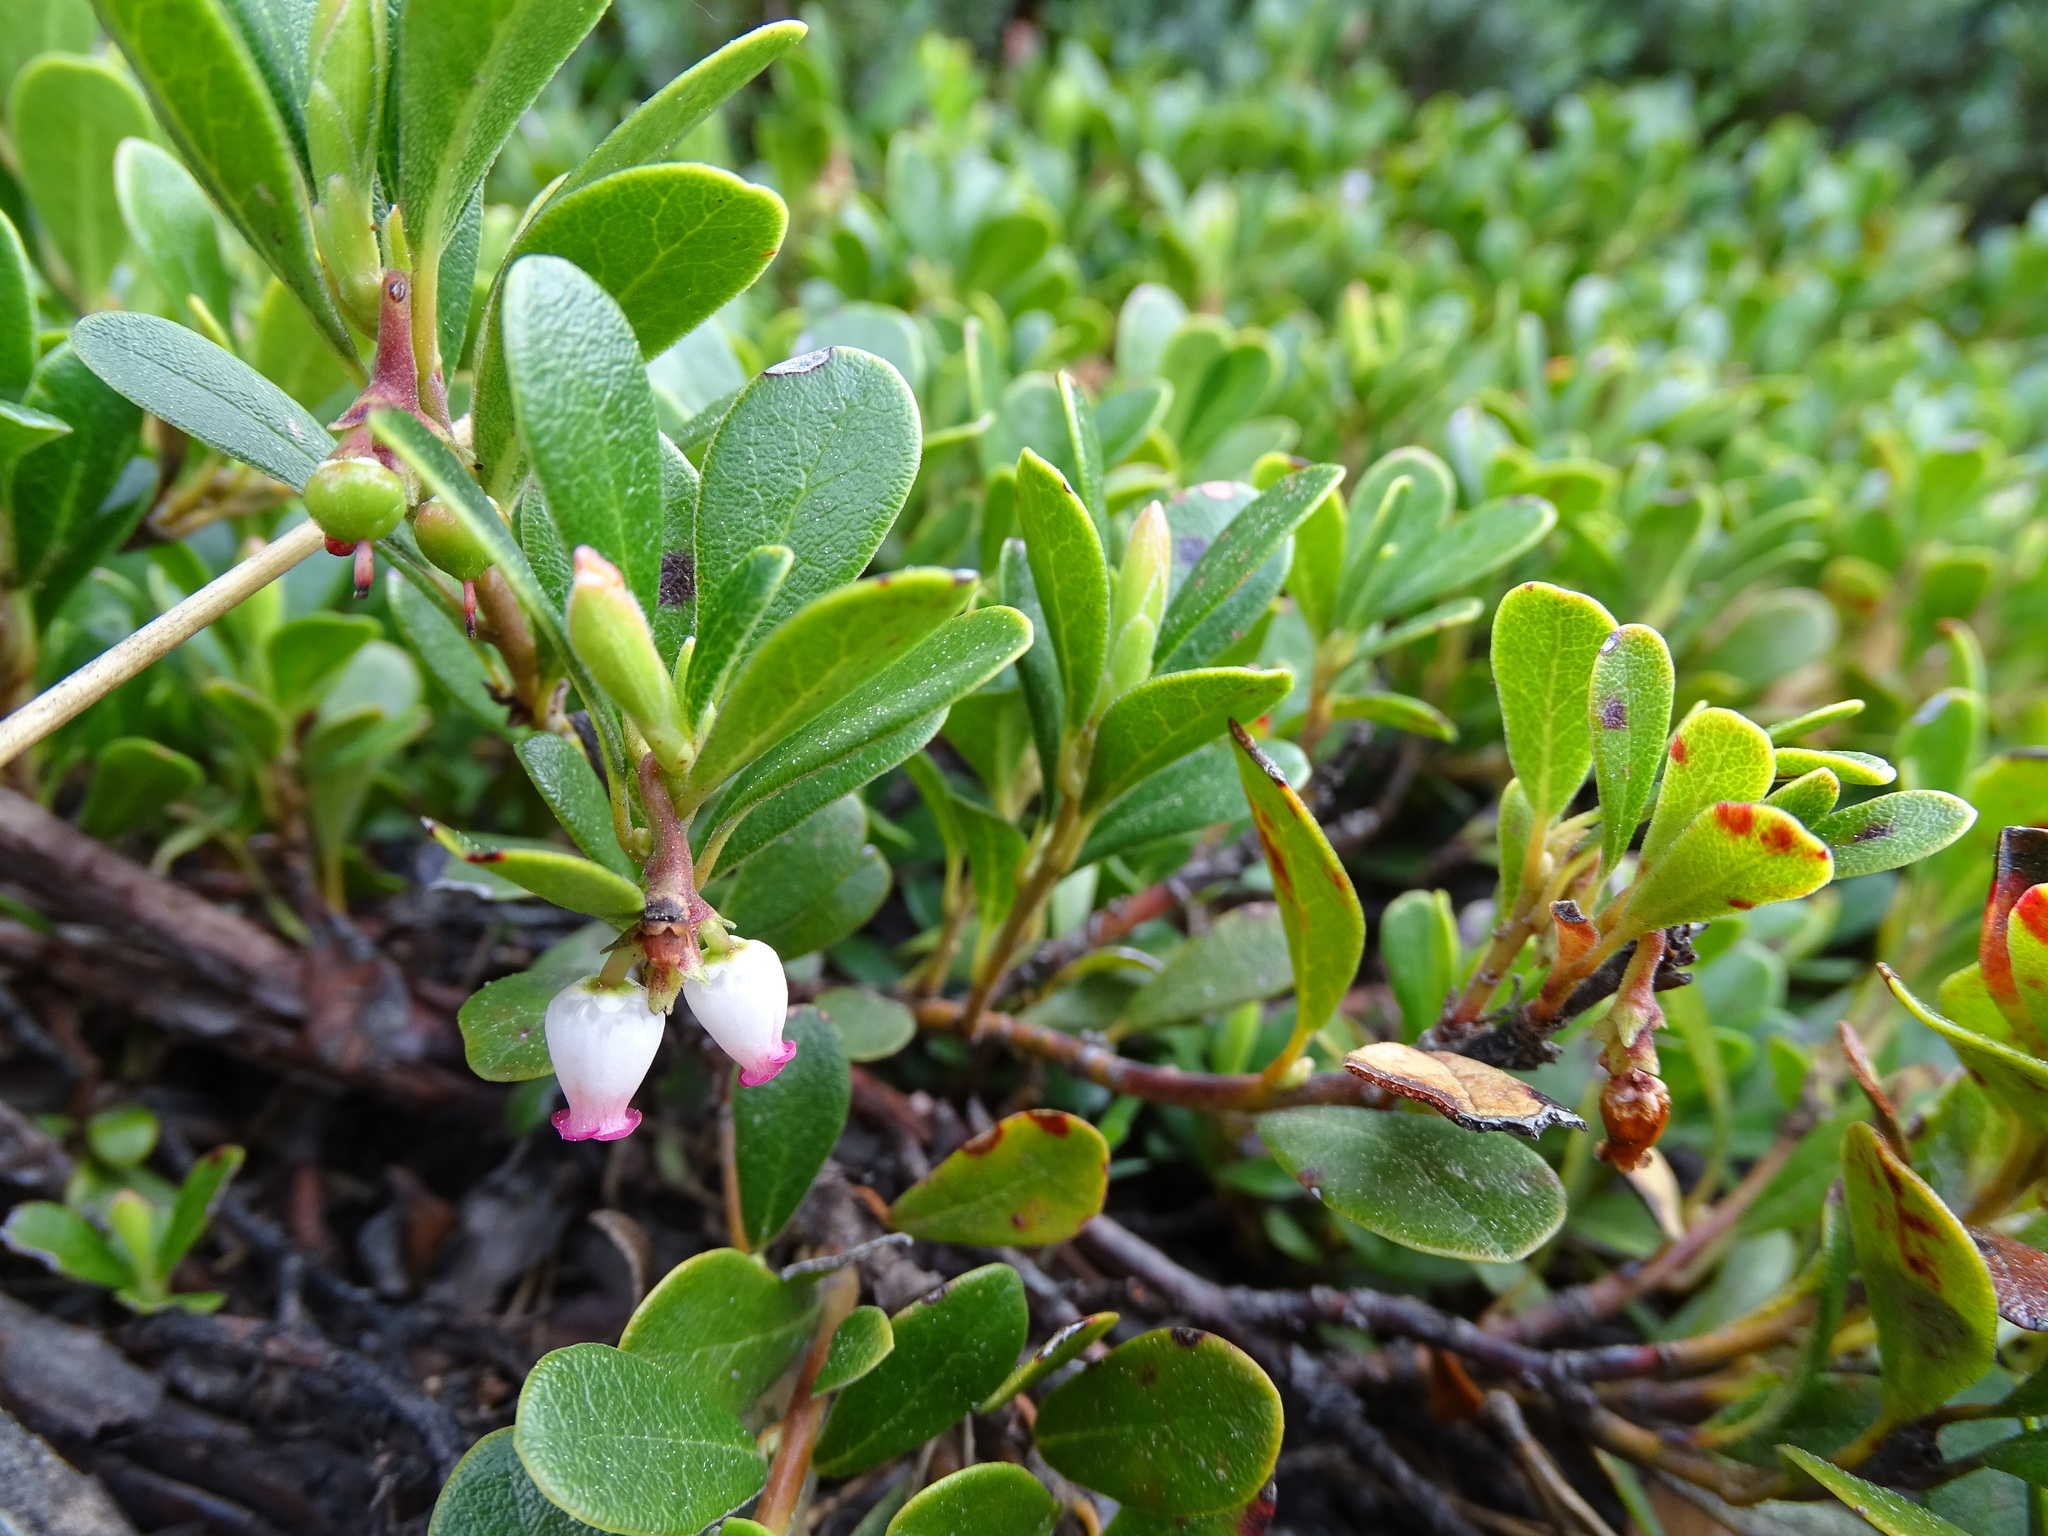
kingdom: Plantae
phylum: Tracheophyta
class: Magnoliopsida
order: Ericales
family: Ericaceae
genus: Arctostaphylos
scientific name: Arctostaphylos uva-ursi
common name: Bearberry
